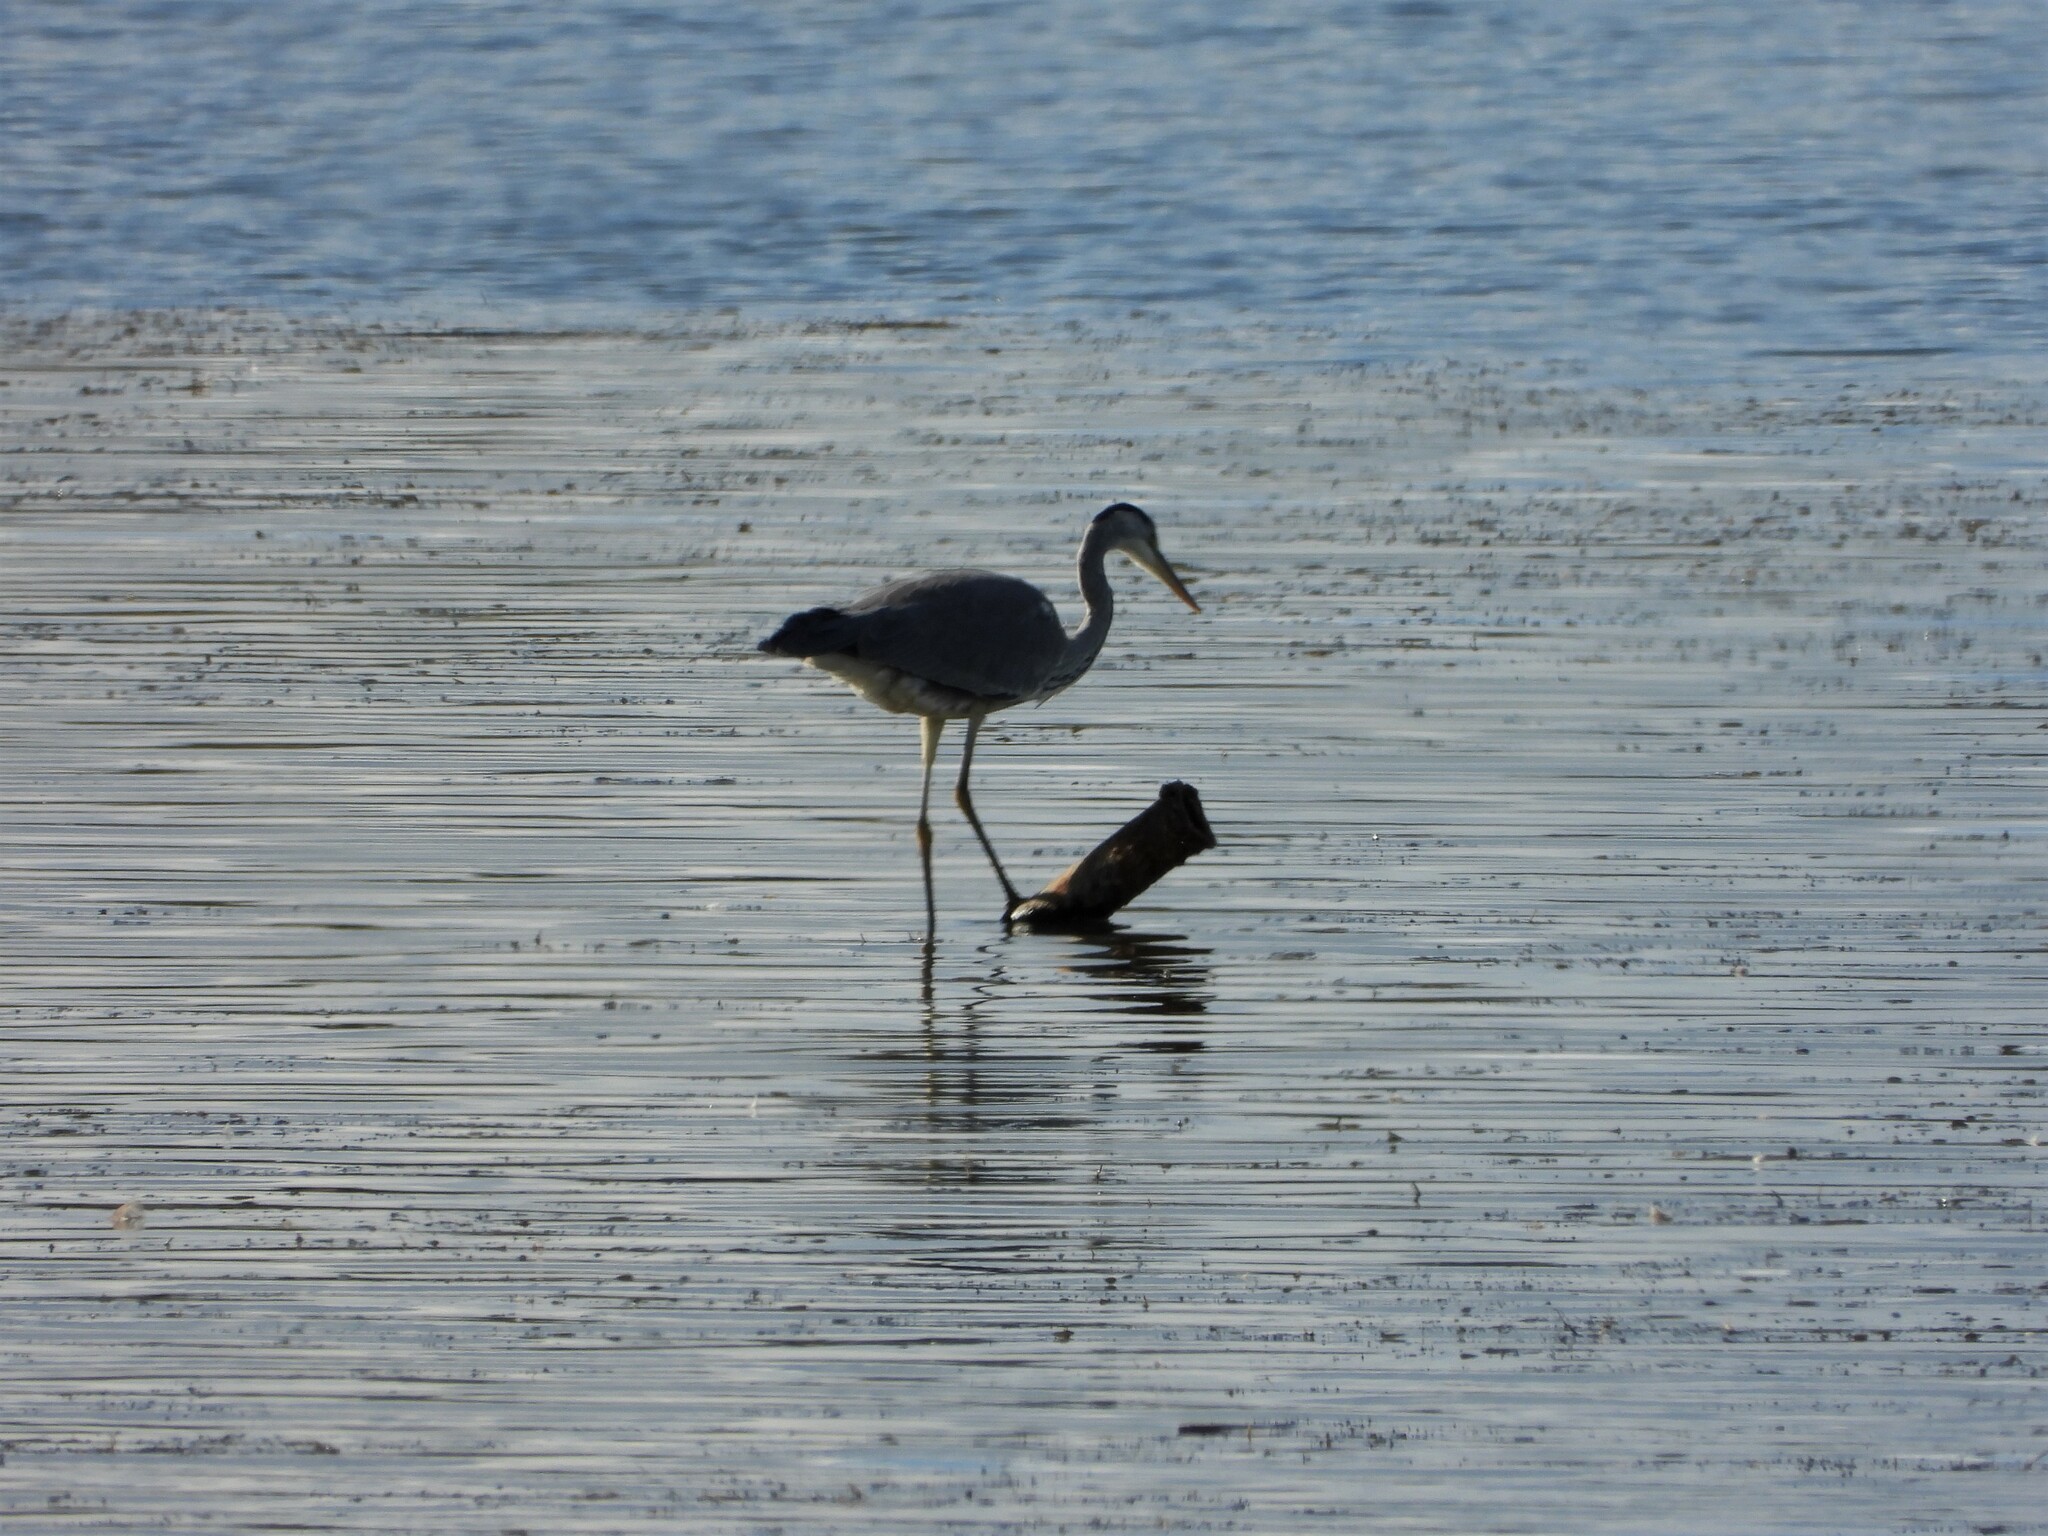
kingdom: Animalia
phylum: Chordata
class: Aves
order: Pelecaniformes
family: Ardeidae
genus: Ardea
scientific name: Ardea cinerea
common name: Grey heron
